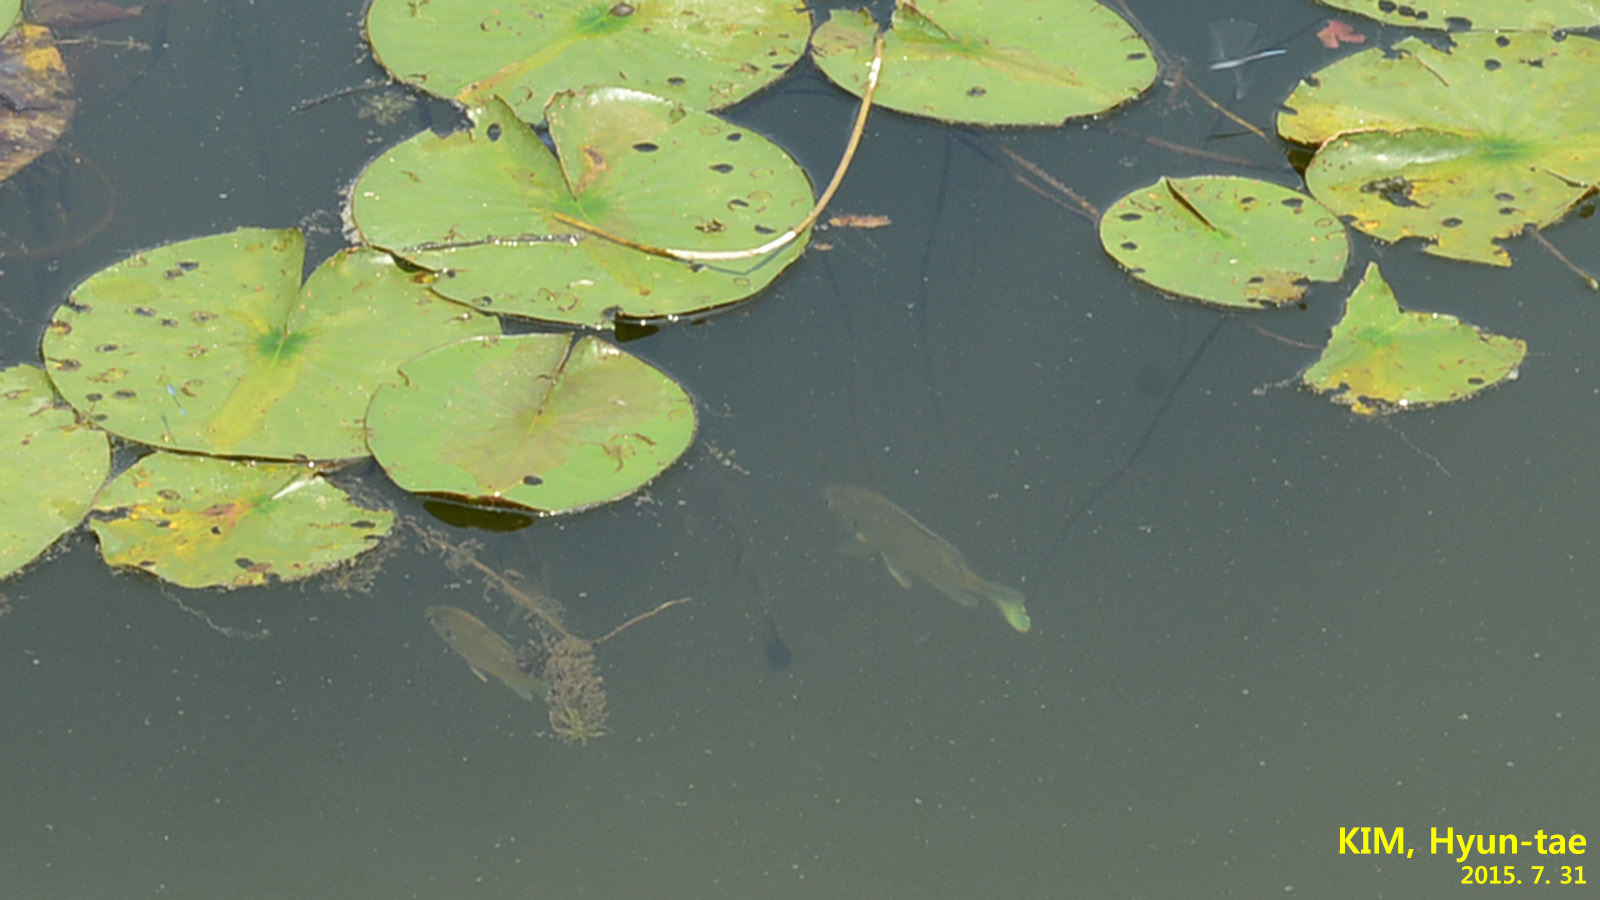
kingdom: Animalia
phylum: Chordata
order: Perciformes
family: Centrarchidae
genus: Lepomis
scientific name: Lepomis macrochirus
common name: Bluegill
